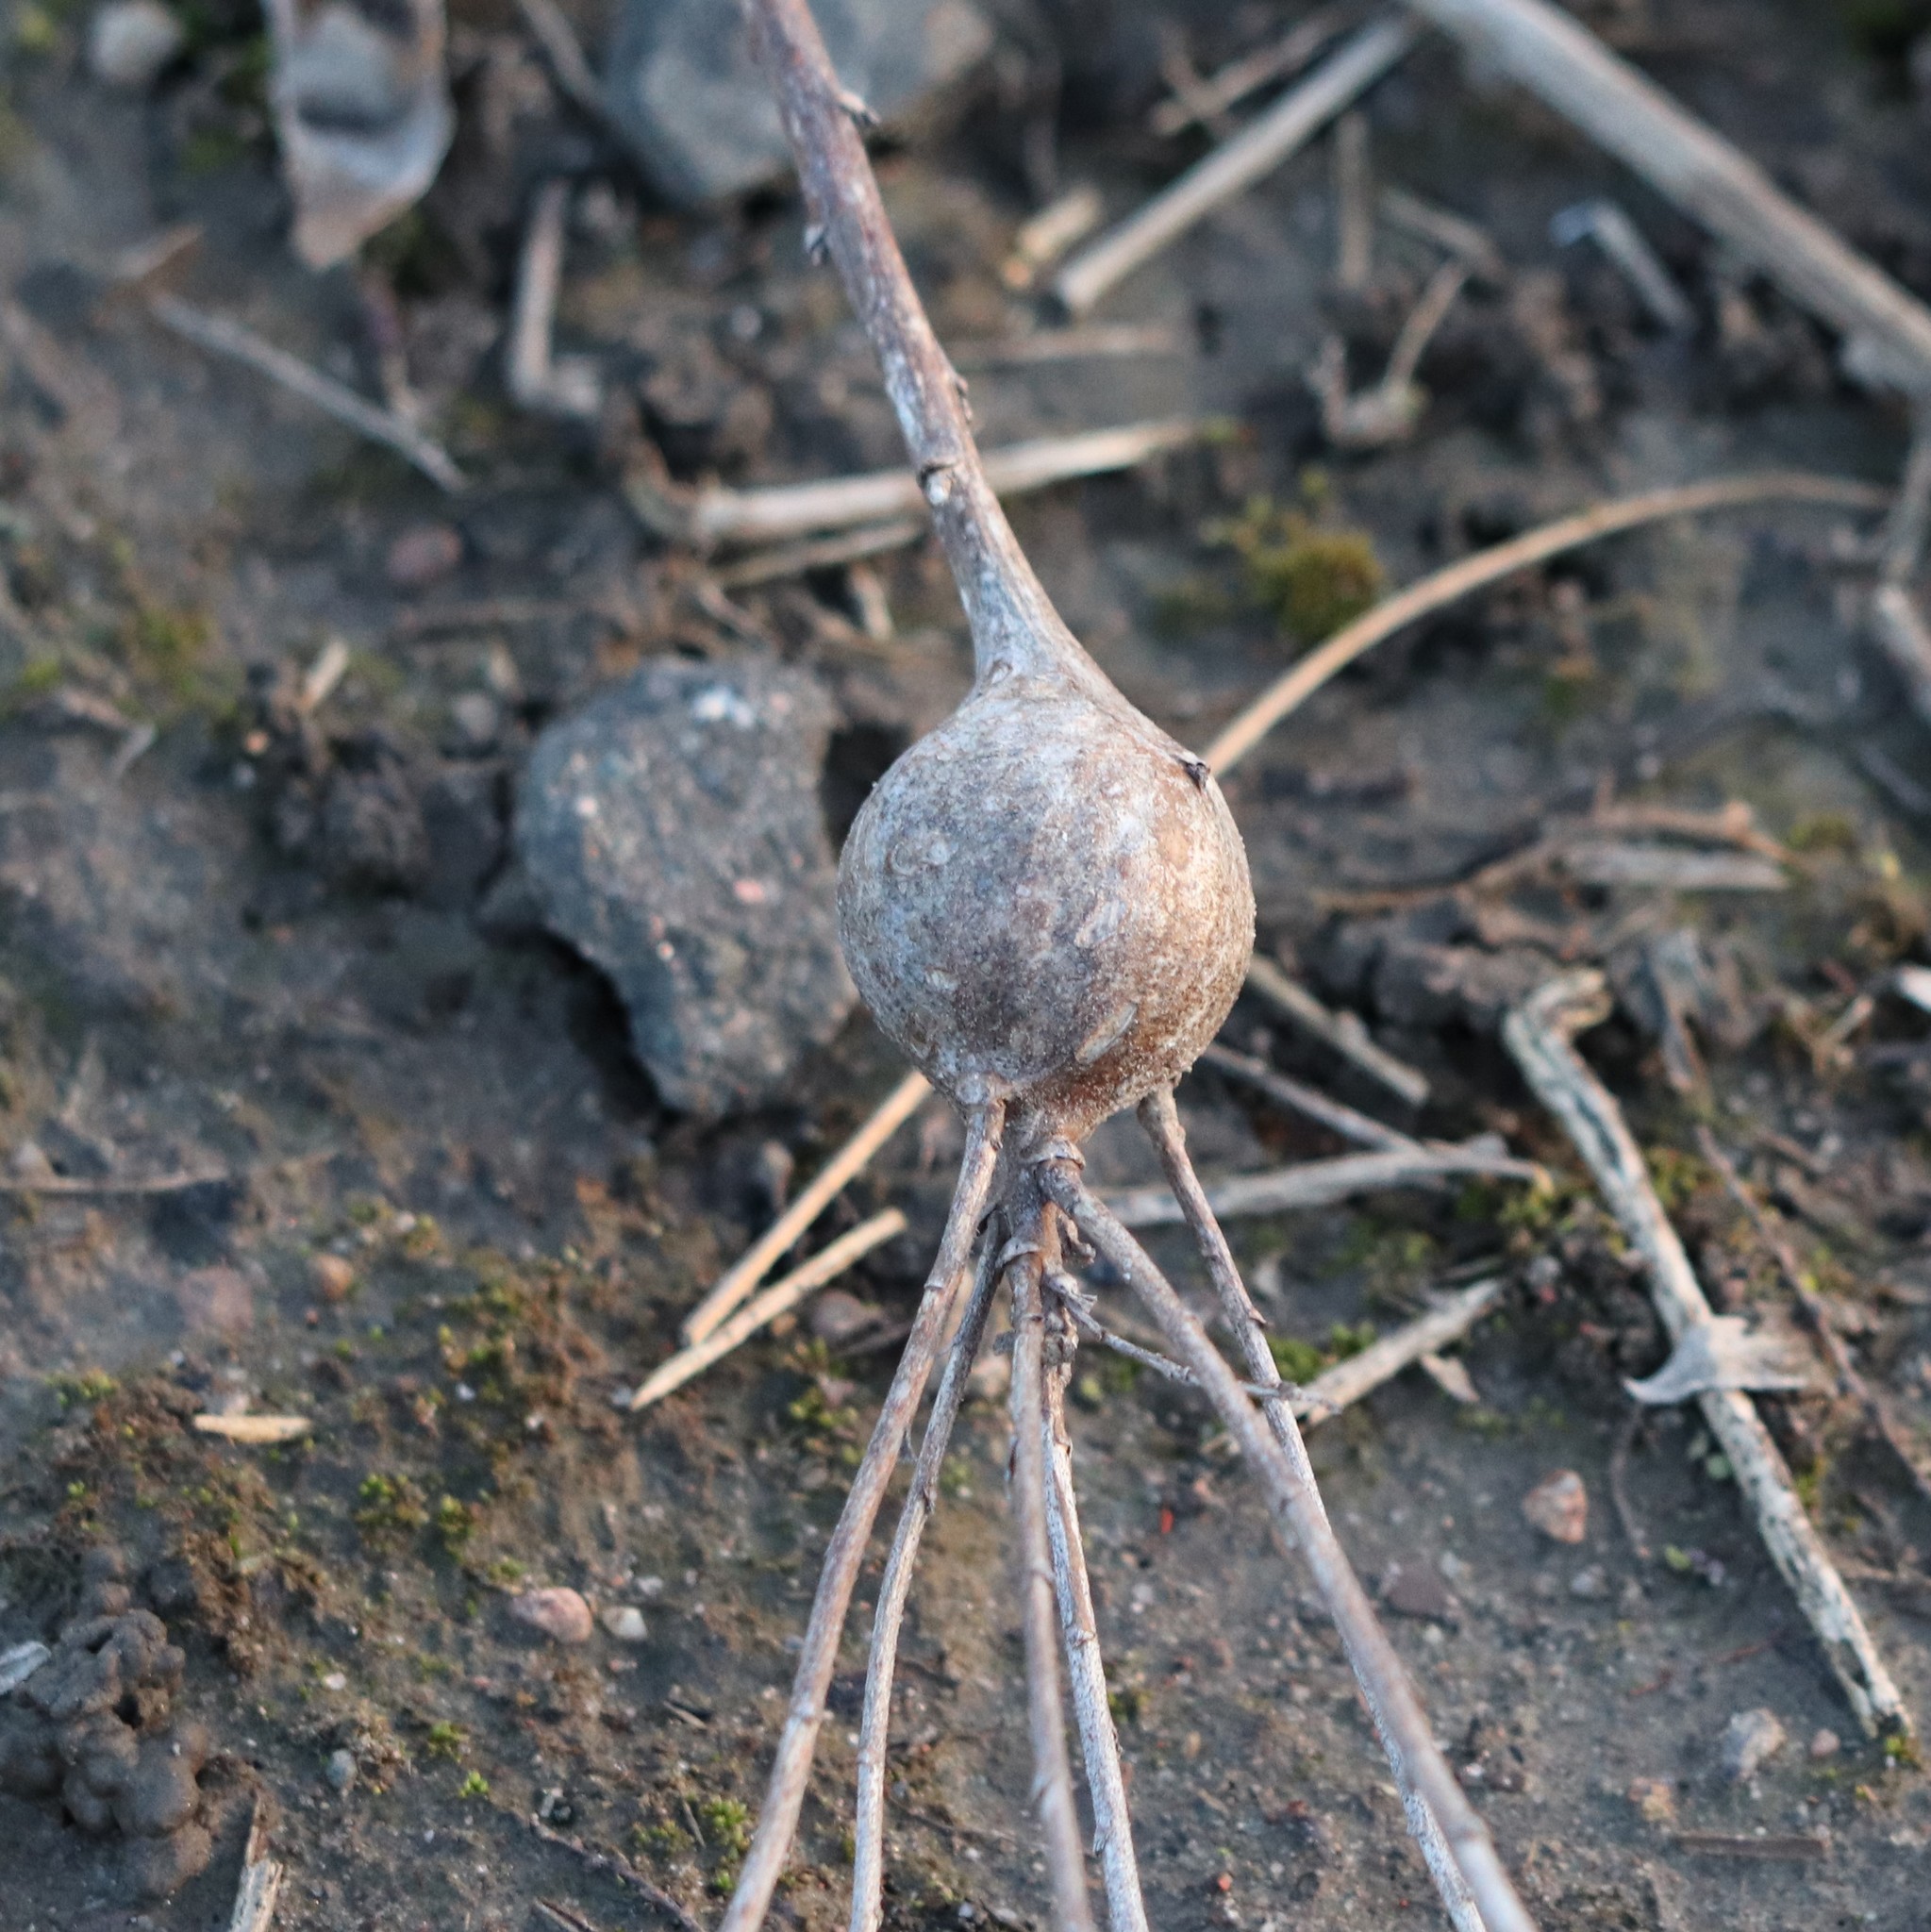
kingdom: Animalia
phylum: Arthropoda
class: Insecta
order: Diptera
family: Tephritidae
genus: Eurosta
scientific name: Eurosta solidaginis
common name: Goldenrod gall fly
